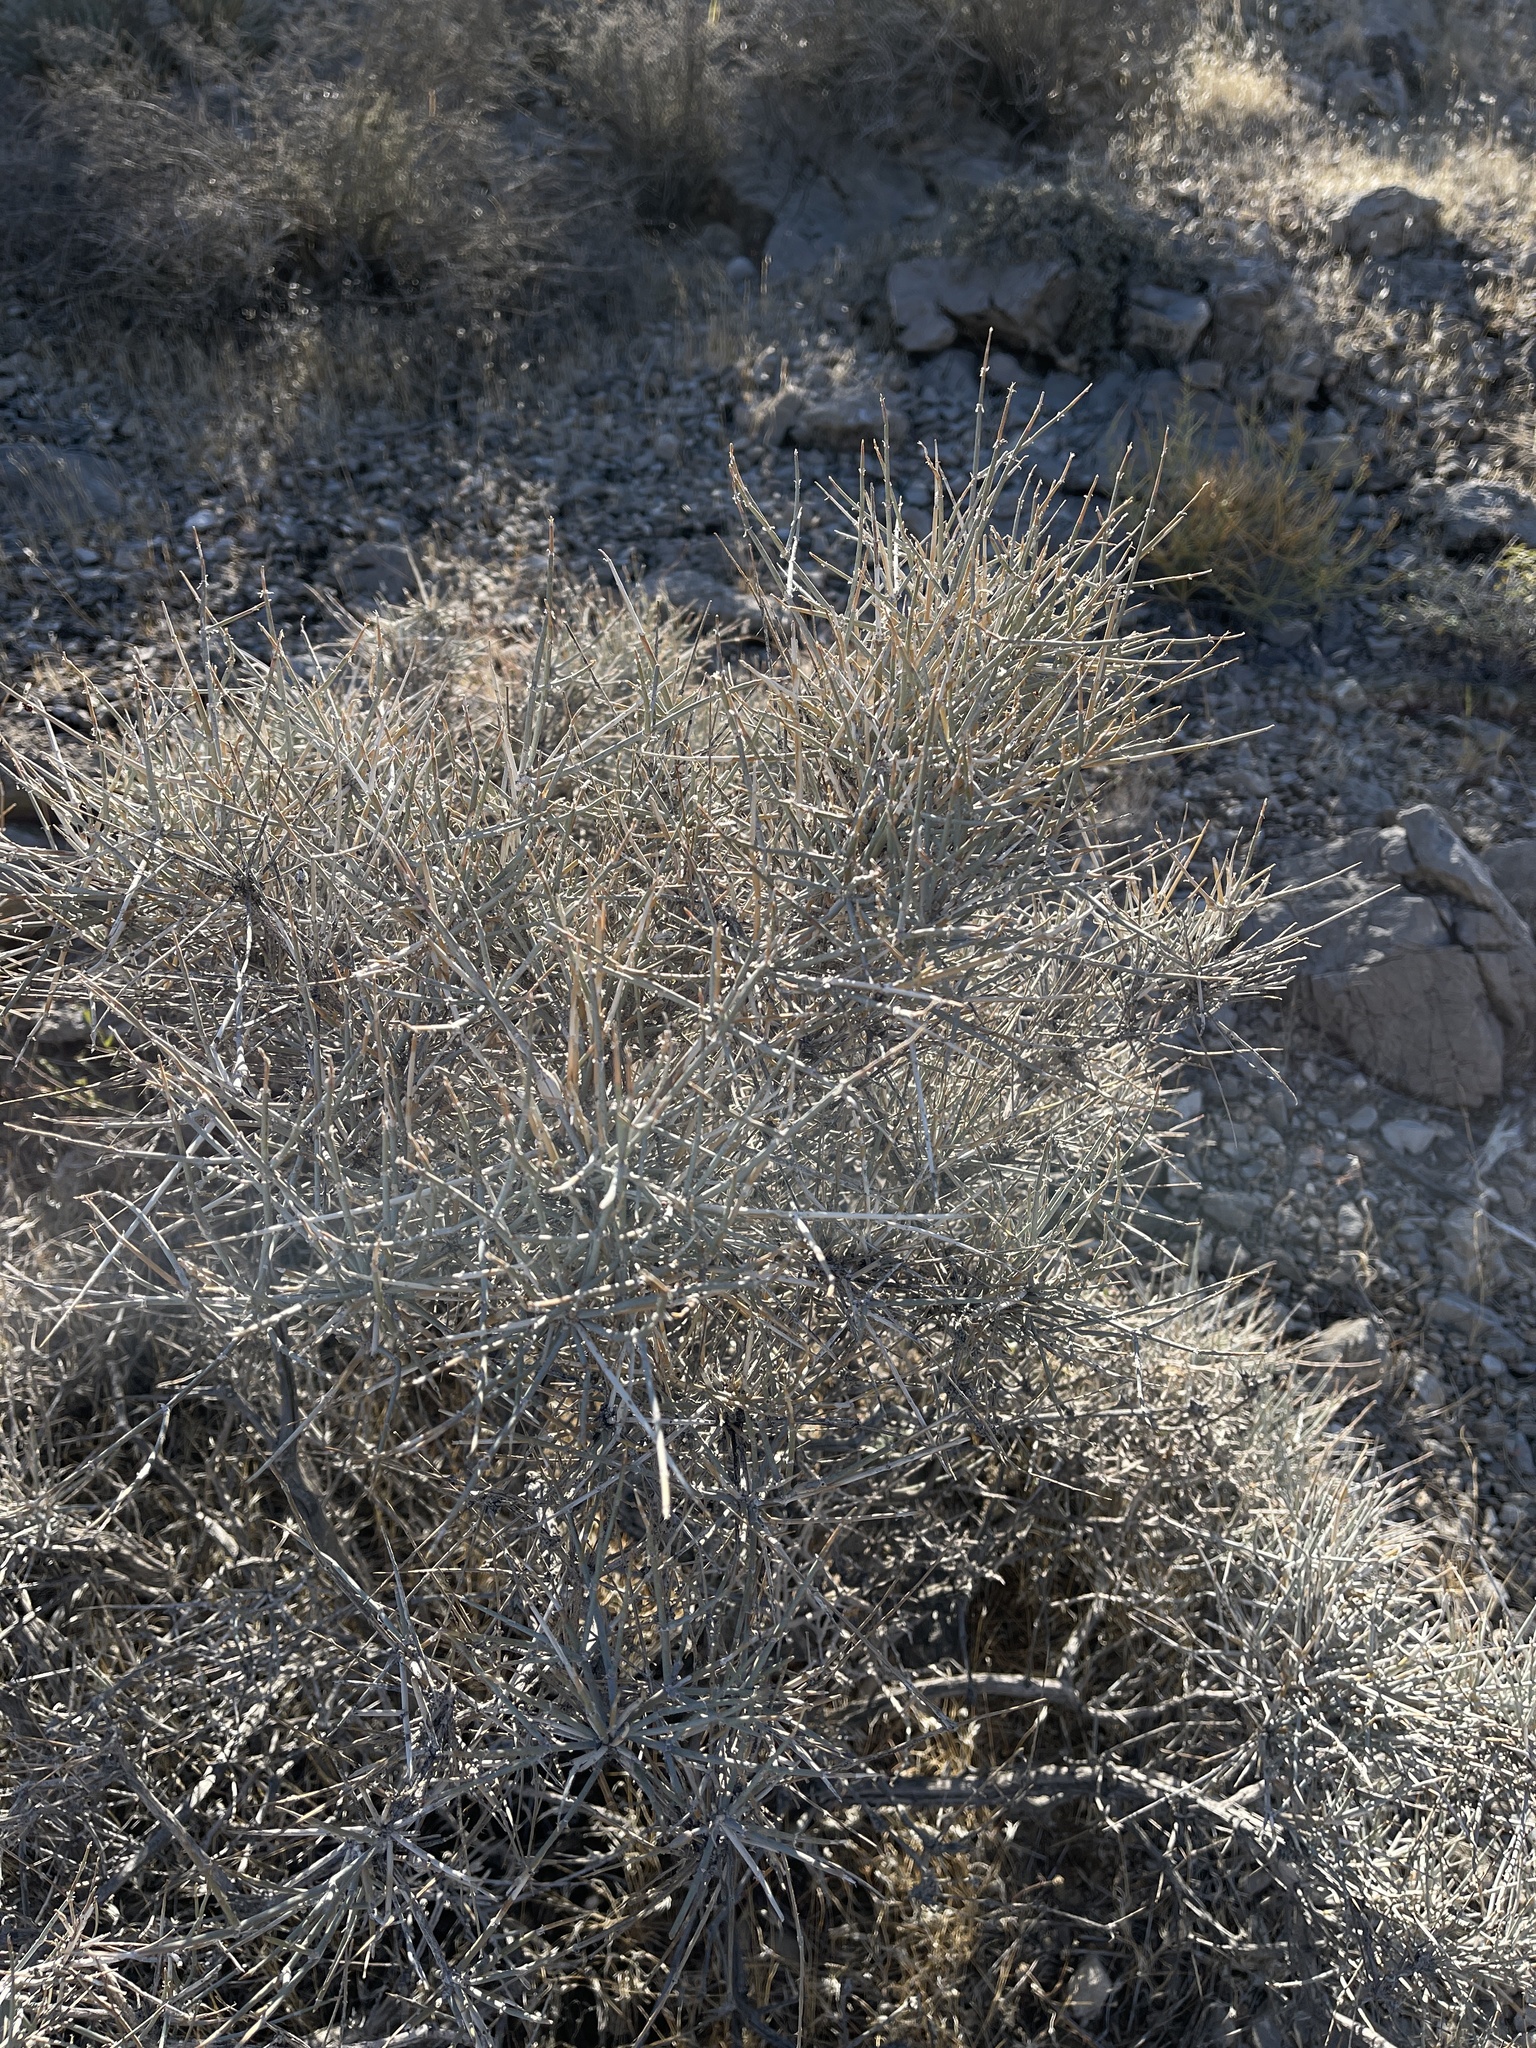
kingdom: Plantae
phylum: Tracheophyta
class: Gnetopsida
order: Ephedrales
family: Ephedraceae
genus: Ephedra
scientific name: Ephedra nevadensis
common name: Gray ephedra
